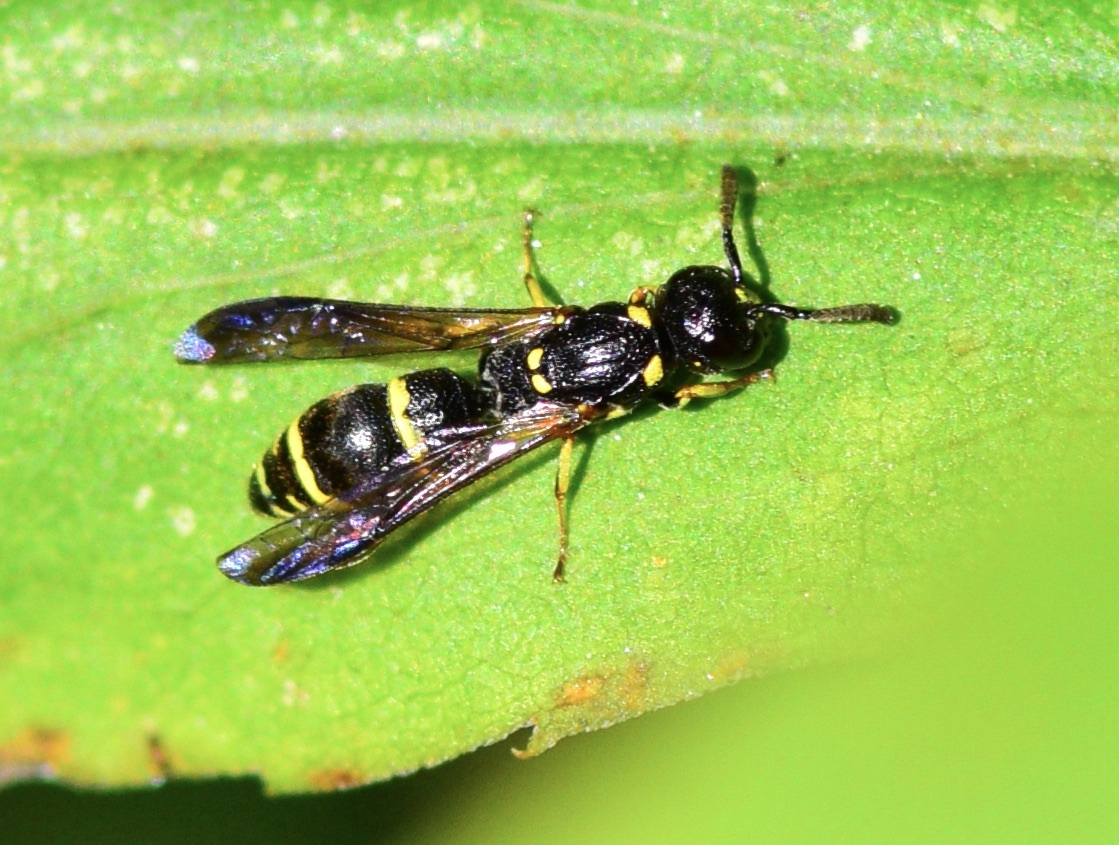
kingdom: Animalia
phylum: Arthropoda
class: Insecta
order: Hymenoptera
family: Eumenidae
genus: Symmorphus
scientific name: Symmorphus
